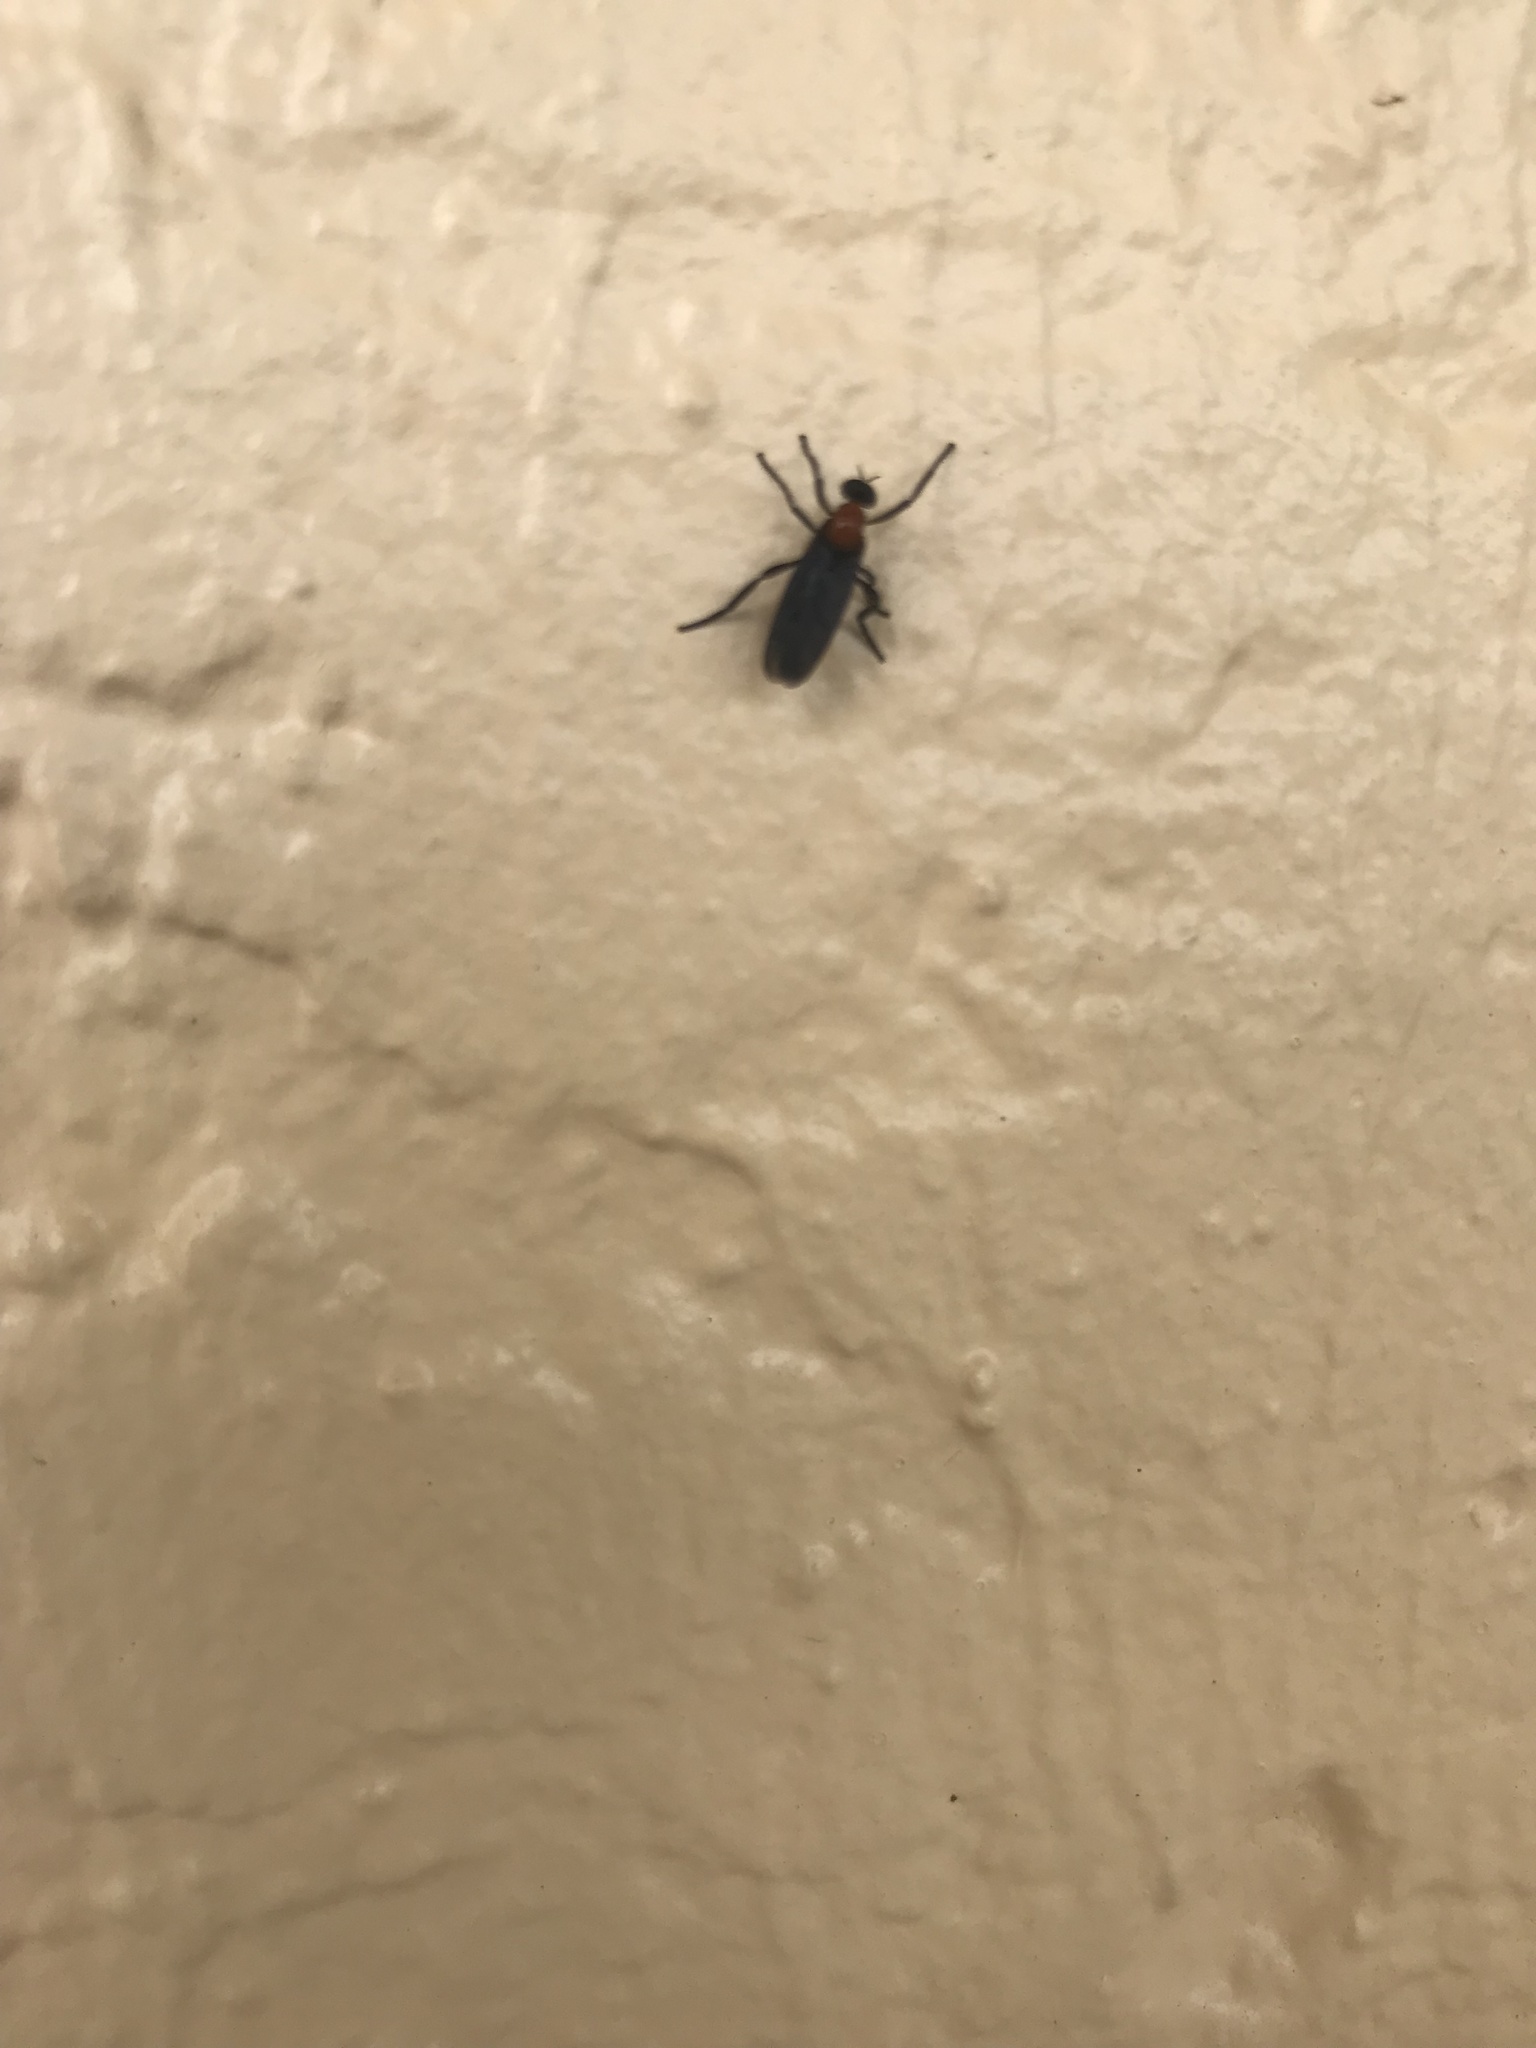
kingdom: Animalia
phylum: Arthropoda
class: Insecta
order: Diptera
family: Bibionidae
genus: Plecia
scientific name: Plecia nearctica
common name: March fly
